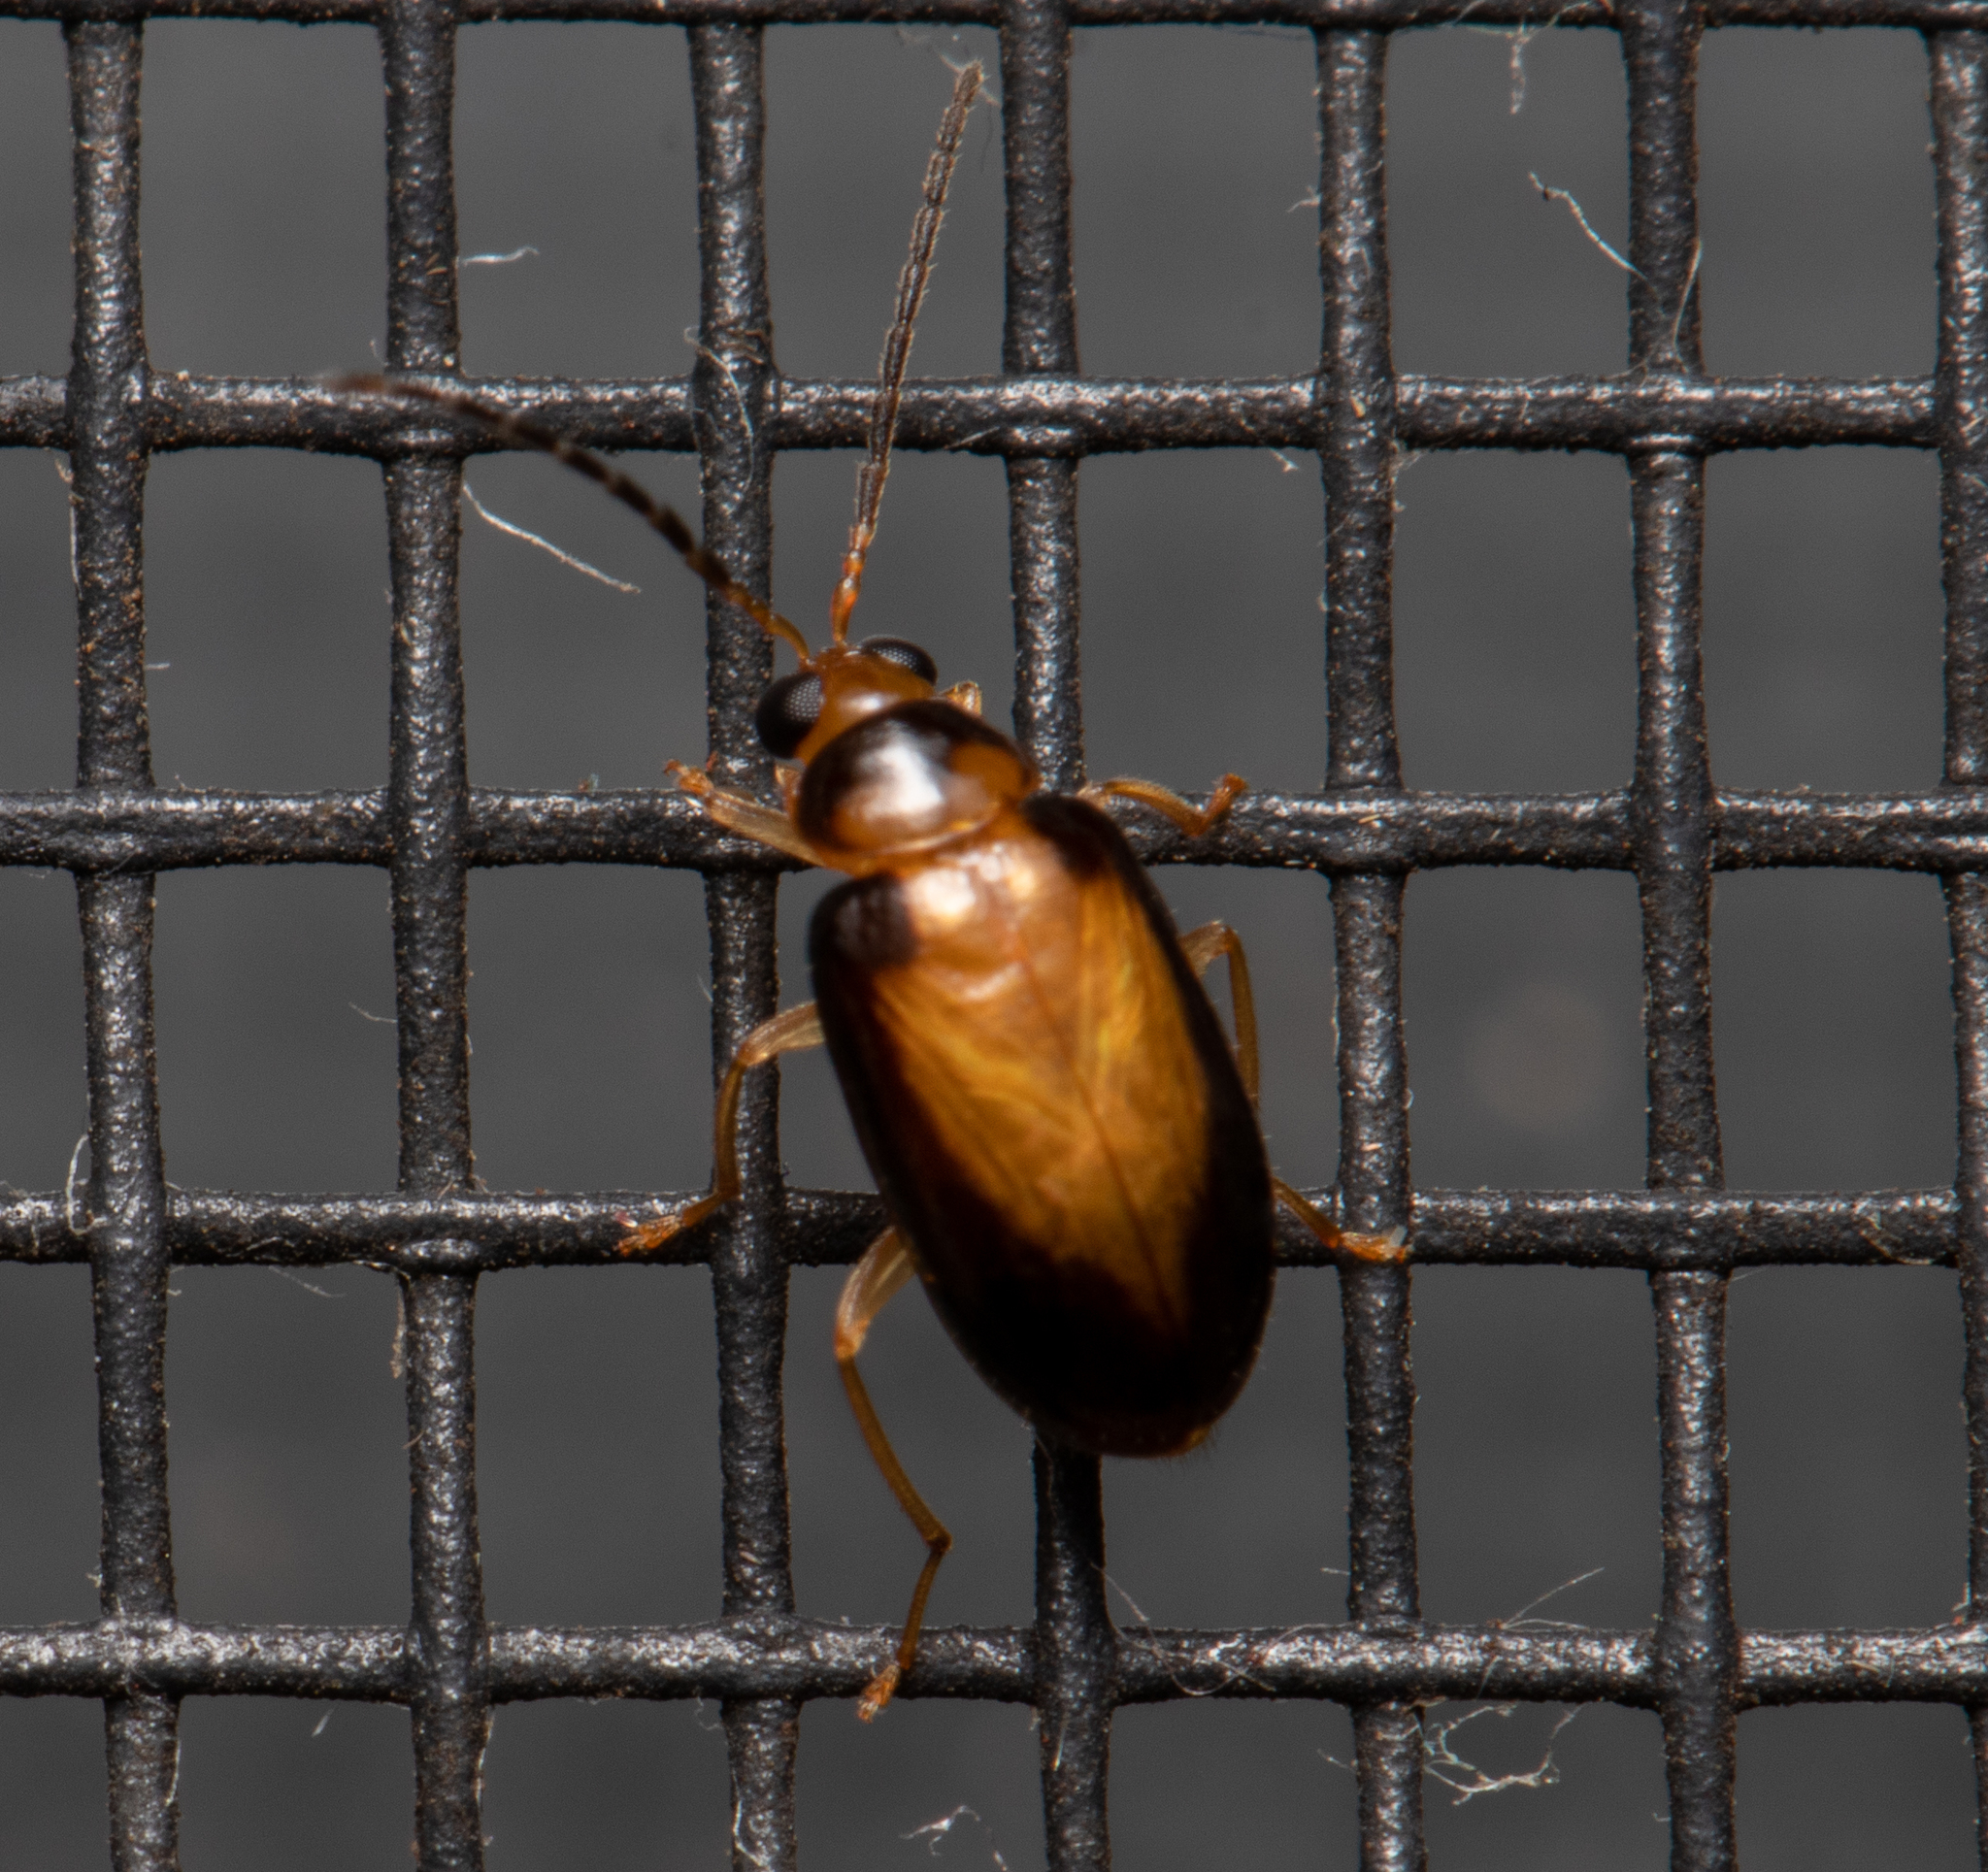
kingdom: Animalia
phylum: Arthropoda
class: Insecta
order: Coleoptera
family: Chrysomelidae
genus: Monolepta
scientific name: Monolepta
